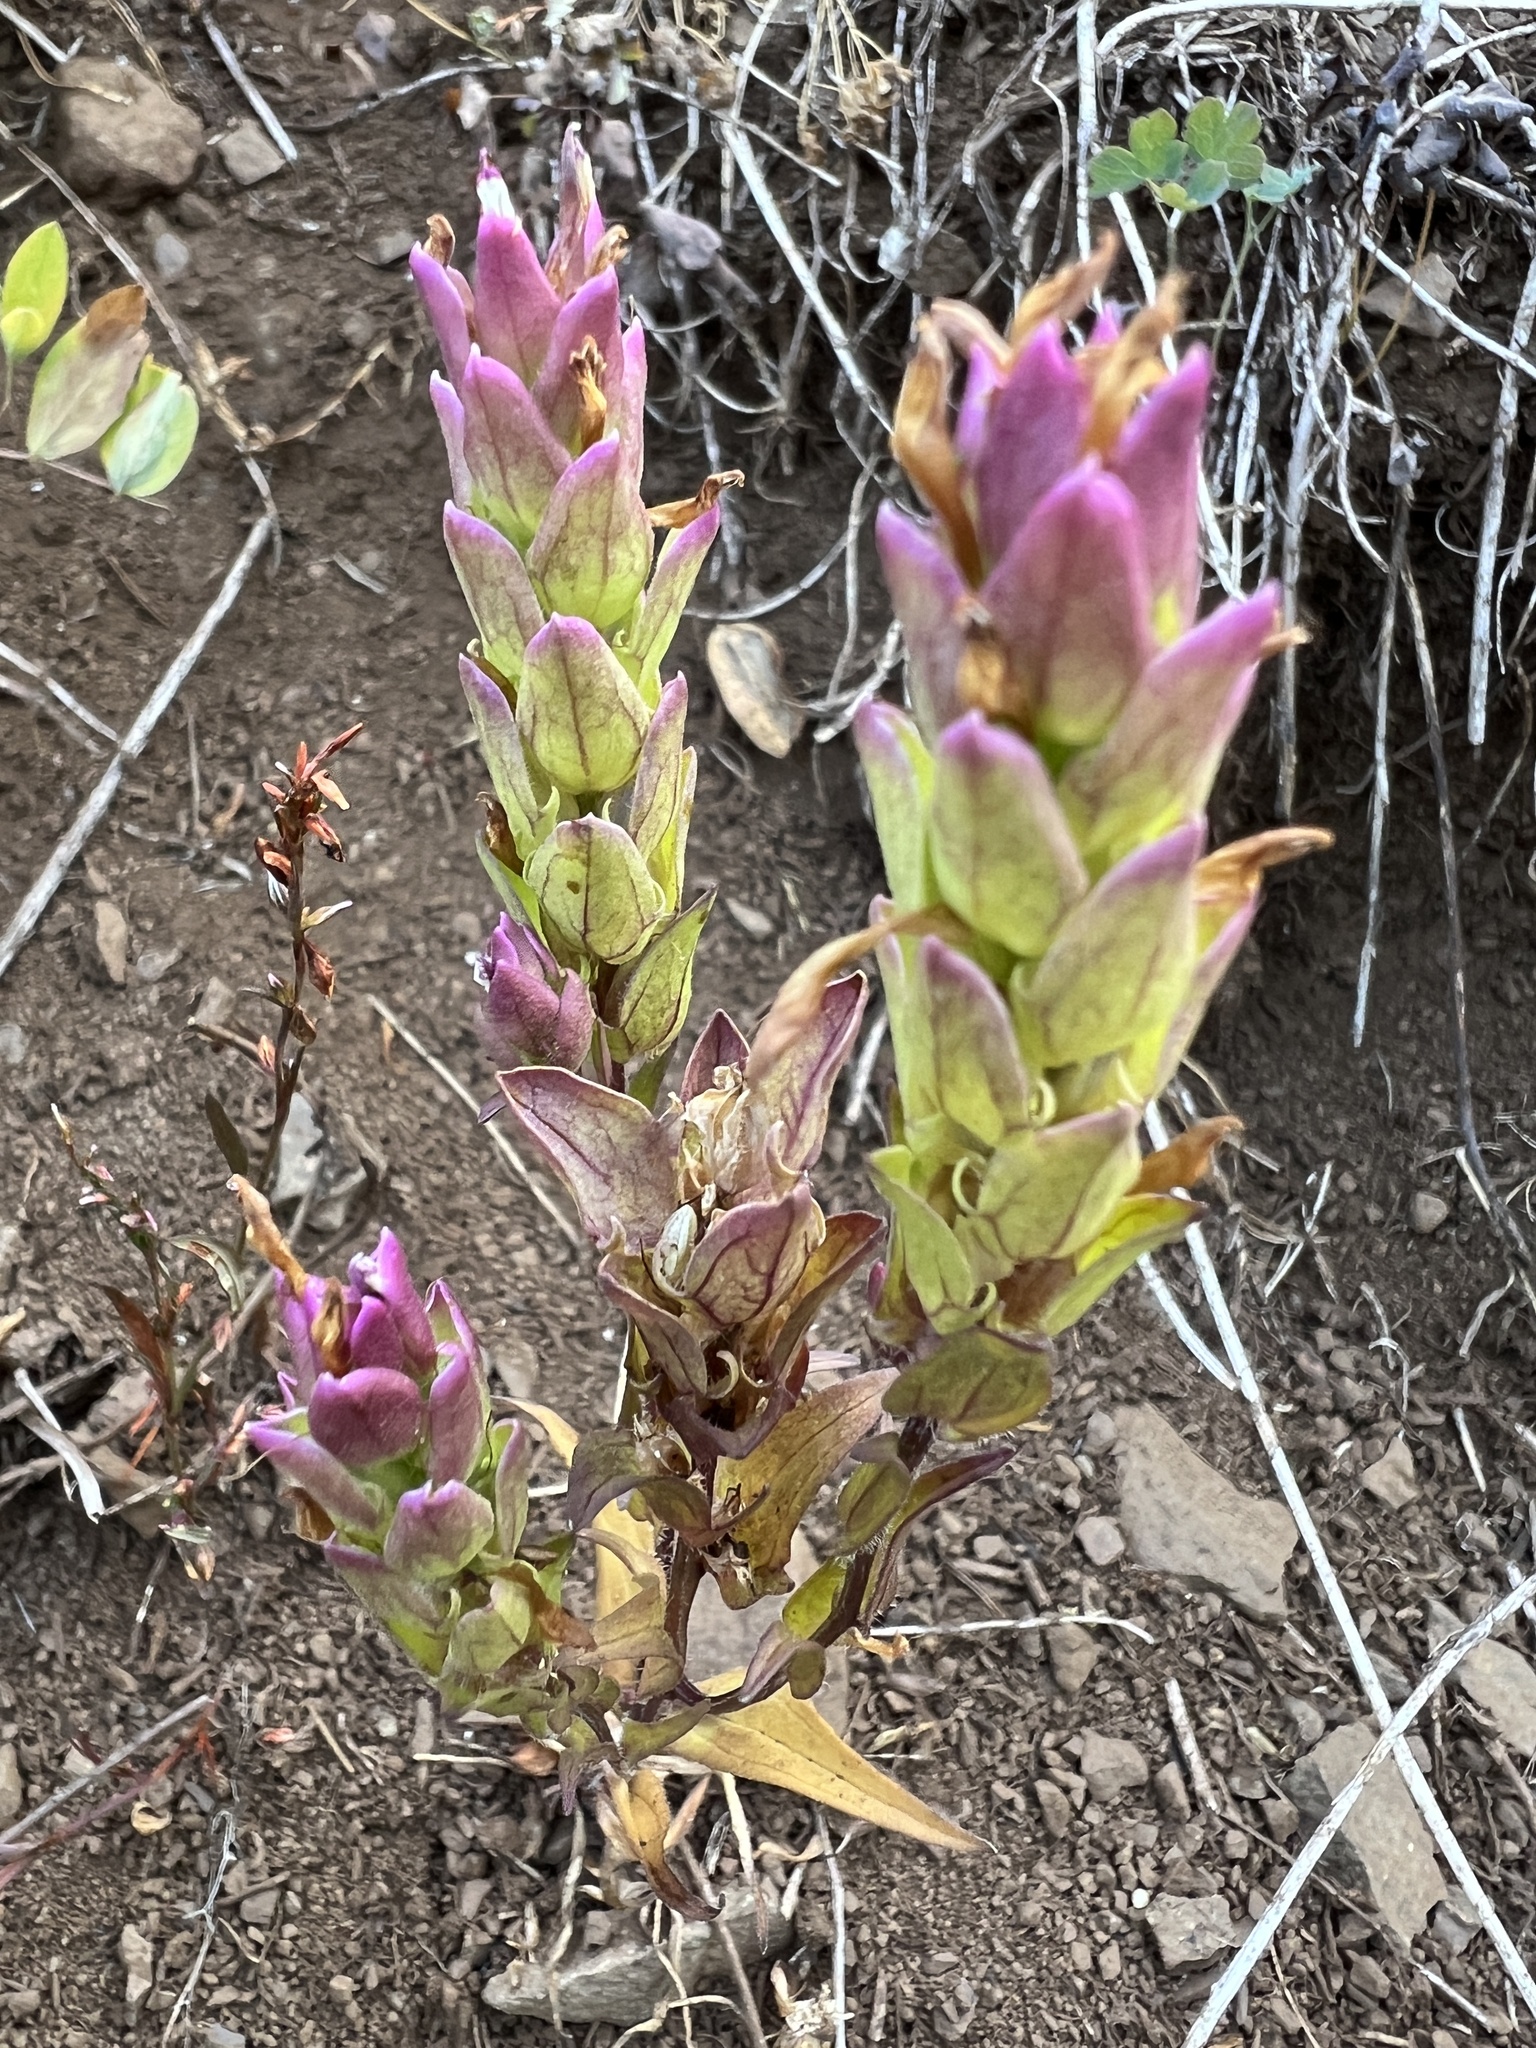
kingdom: Plantae
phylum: Tracheophyta
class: Magnoliopsida
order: Lamiales
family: Orobanchaceae
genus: Orthocarpus
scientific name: Orthocarpus imbricatus
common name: Mountain owl's-clover
